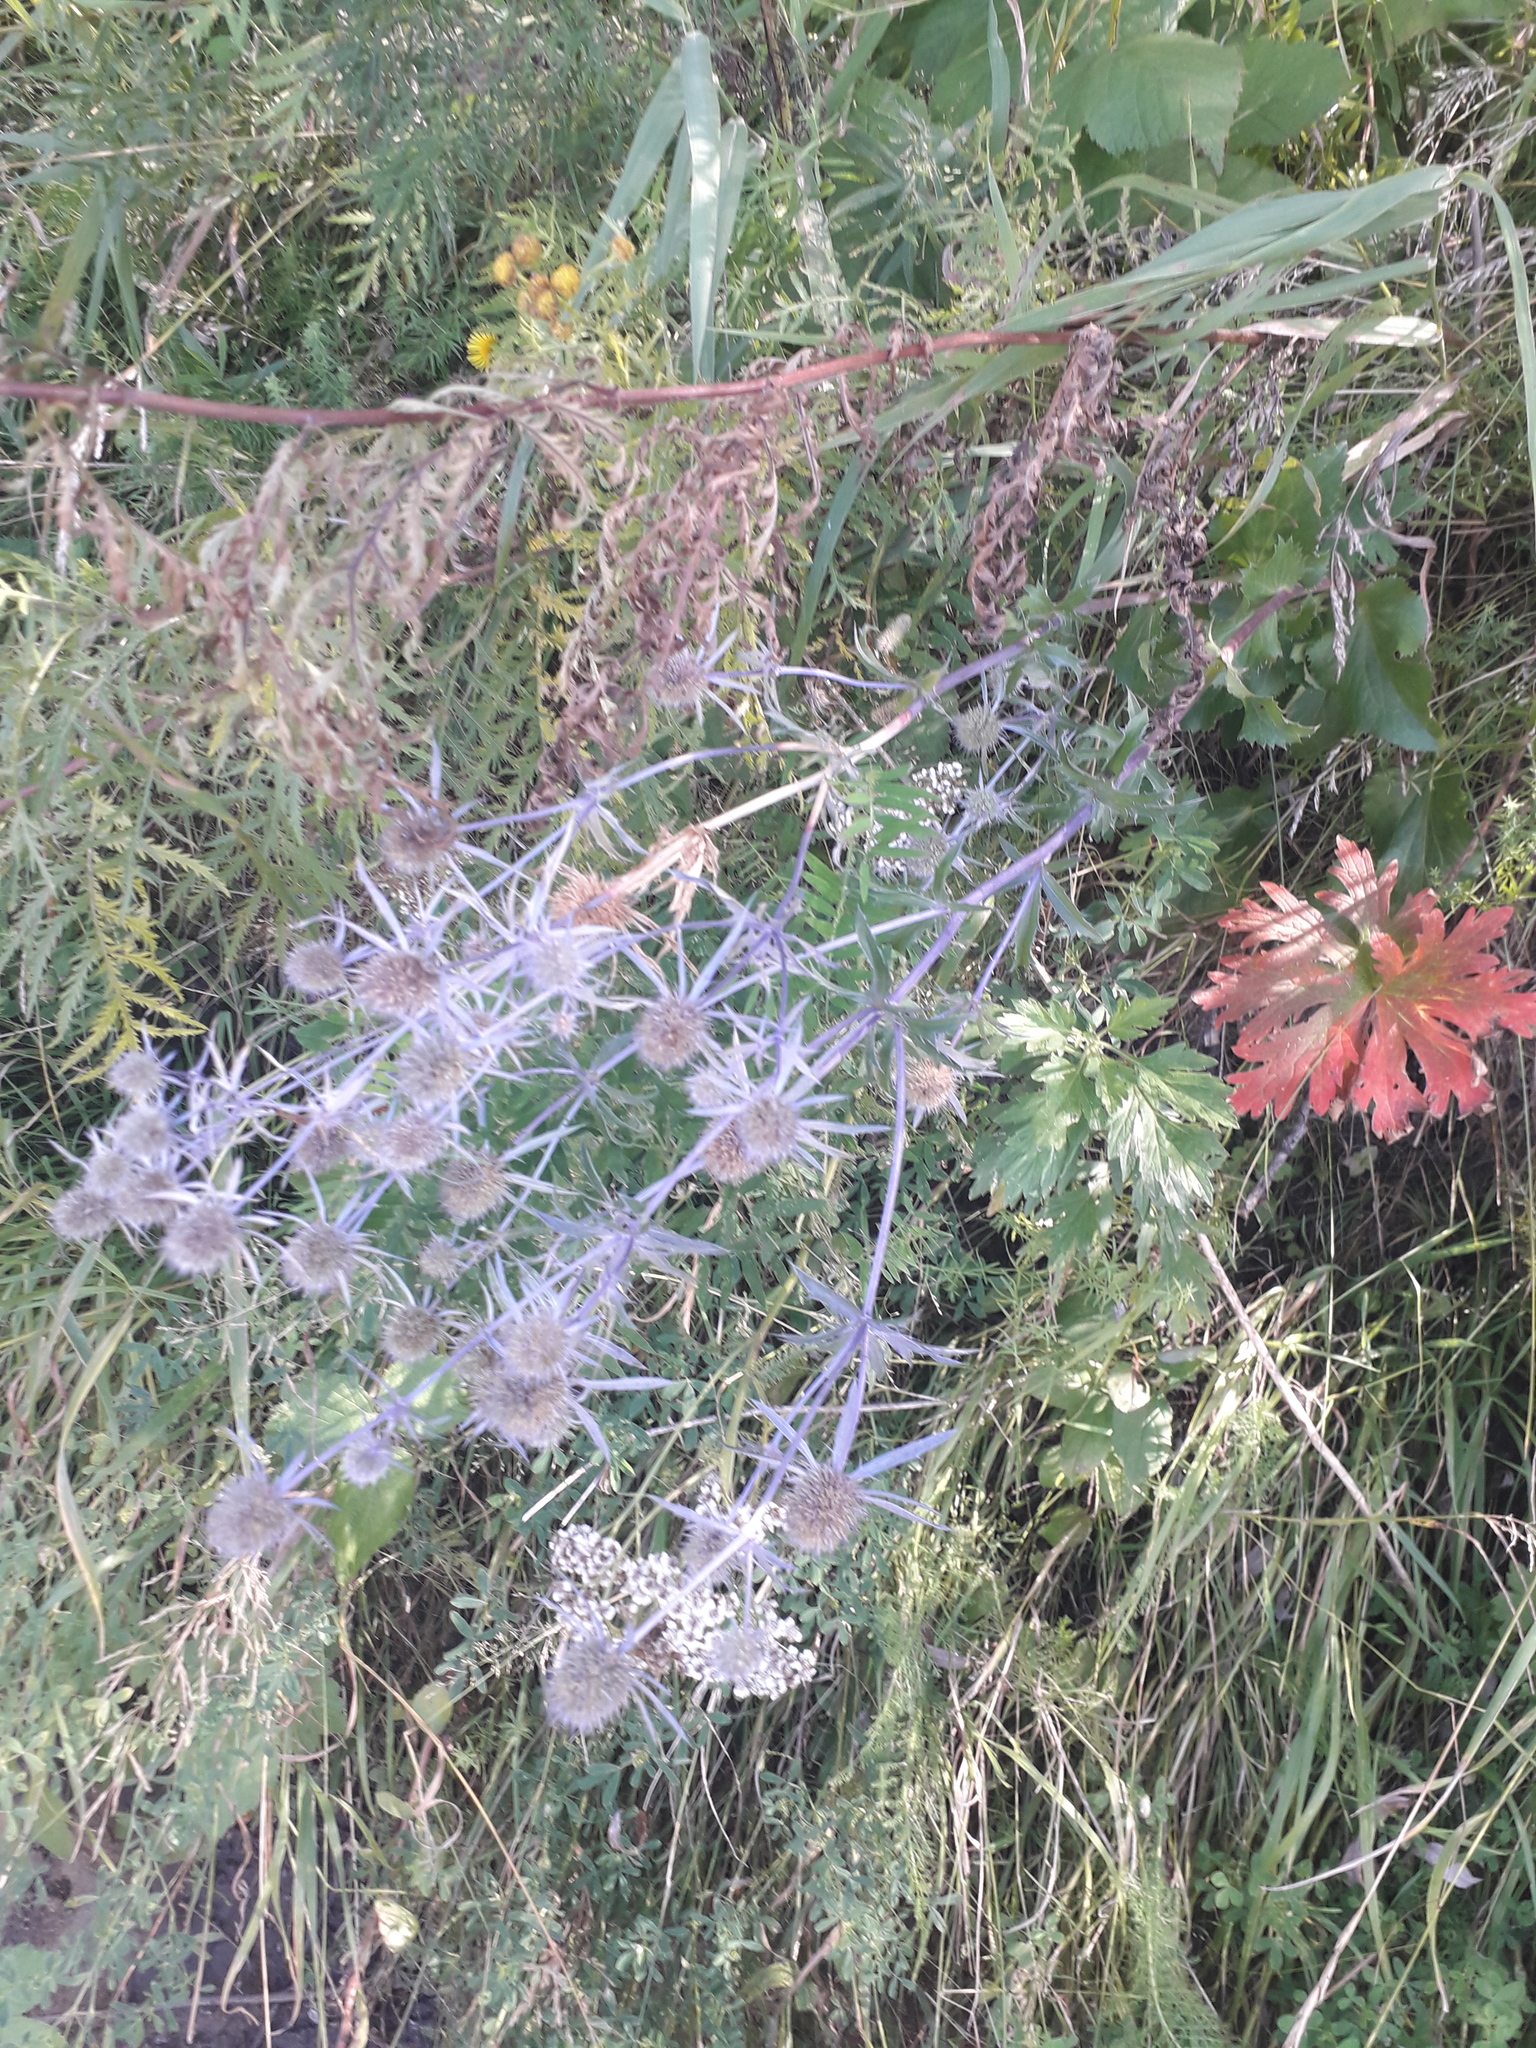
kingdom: Plantae
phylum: Tracheophyta
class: Magnoliopsida
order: Apiales
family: Apiaceae
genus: Eryngium
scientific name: Eryngium planum
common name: Blue eryngo
